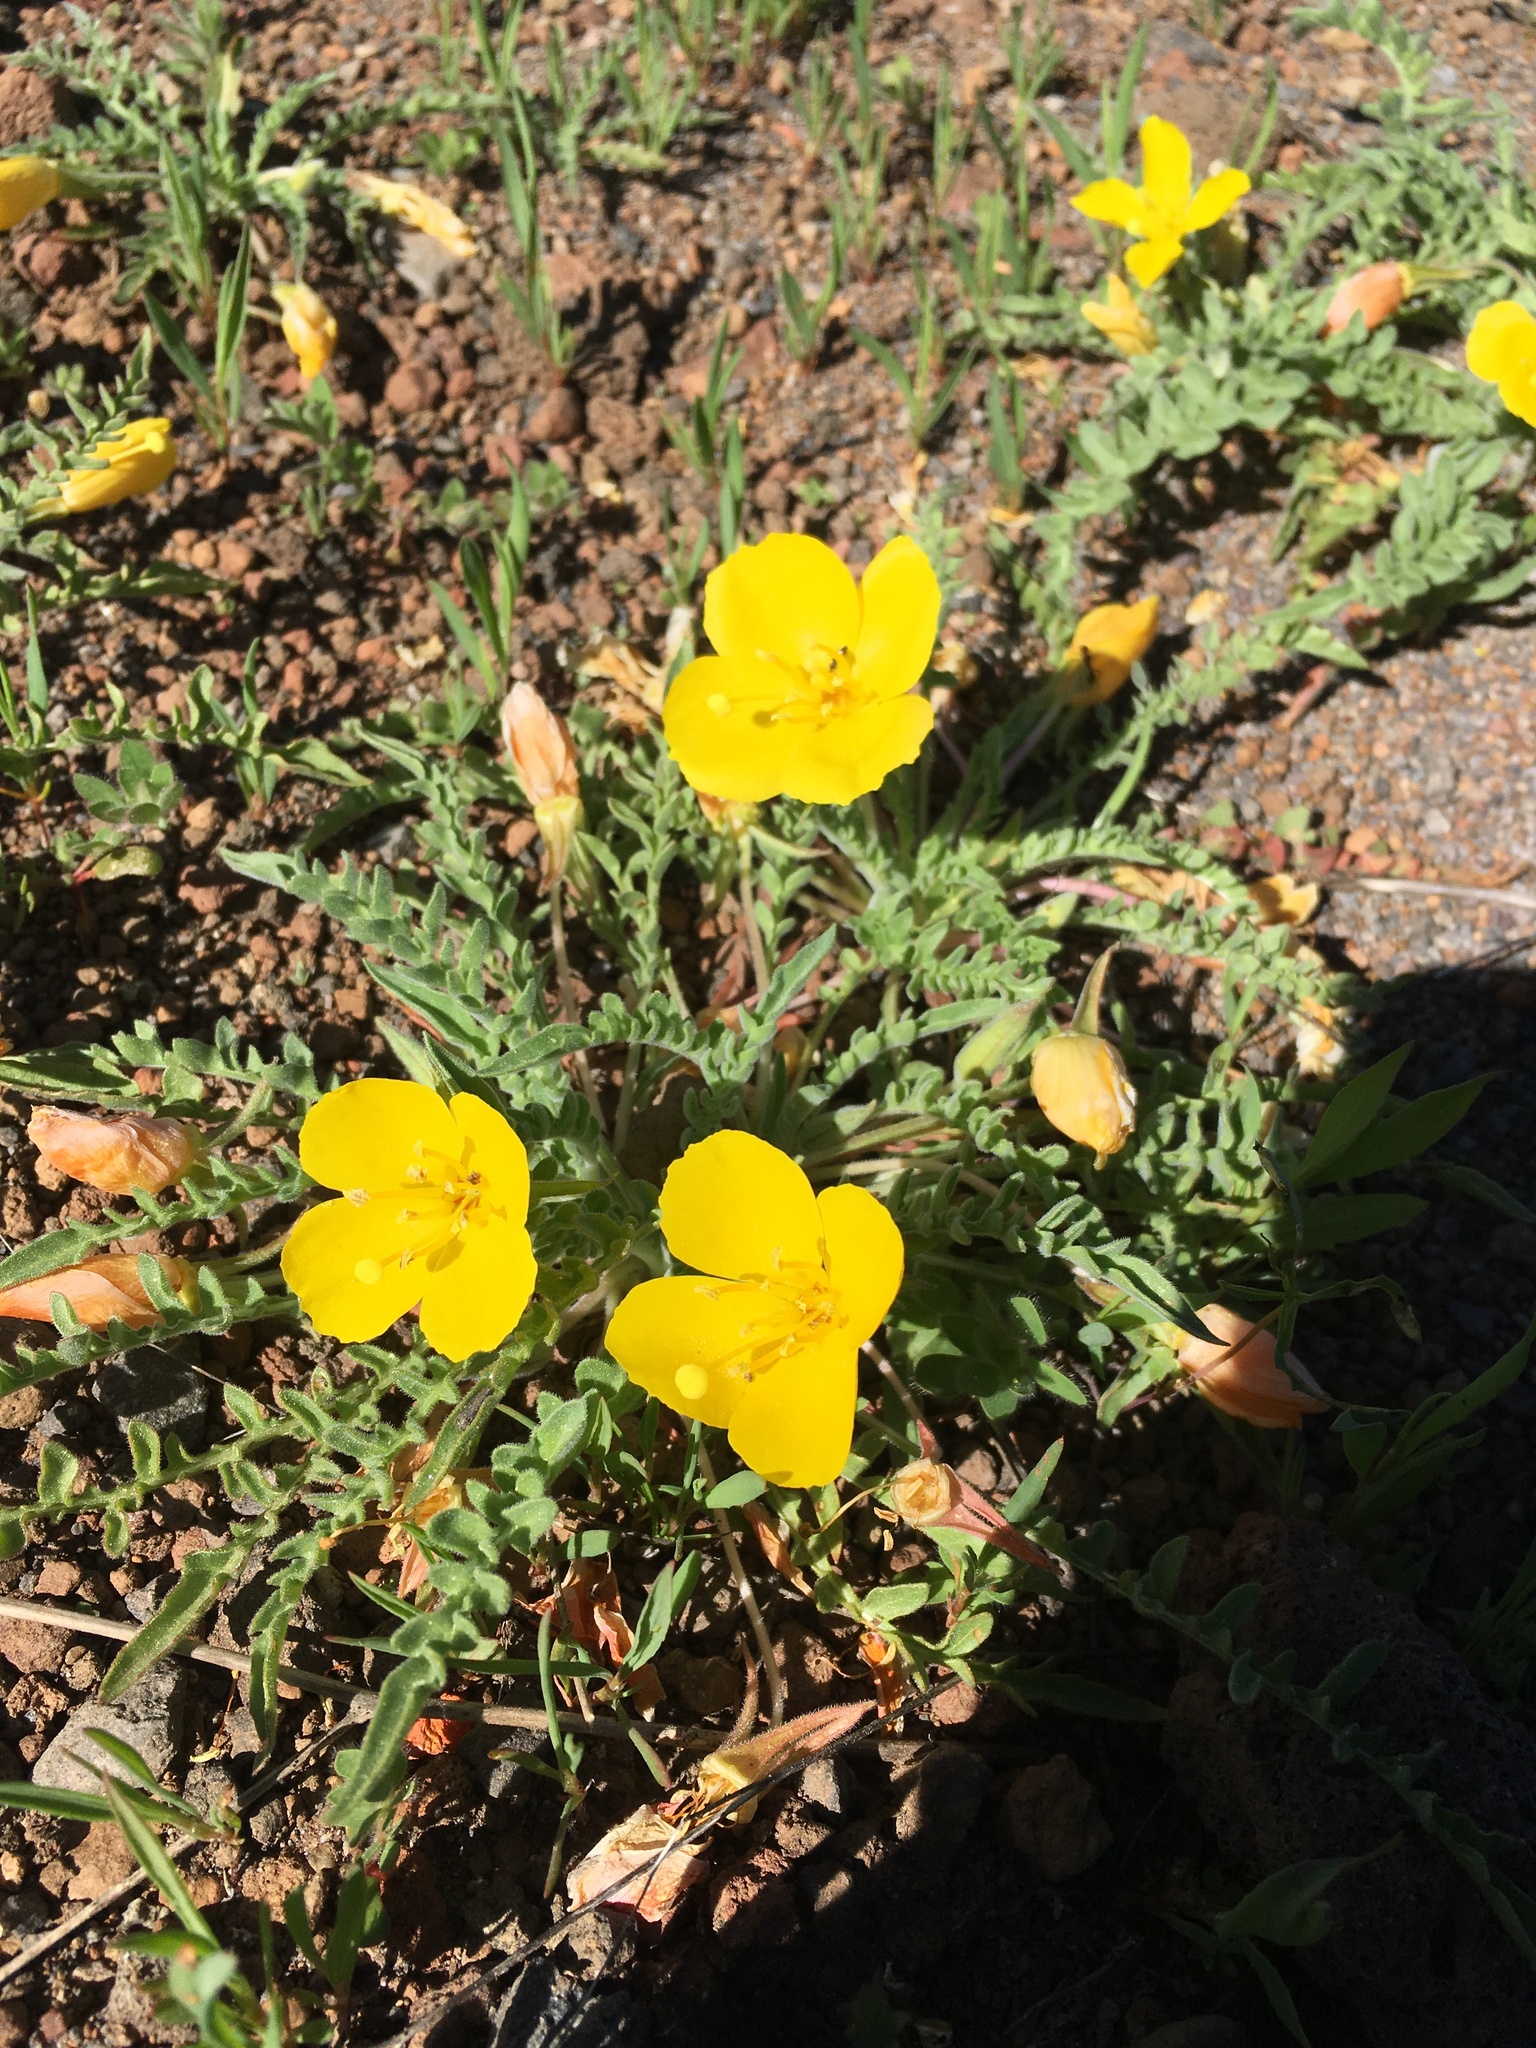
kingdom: Plantae
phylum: Tracheophyta
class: Magnoliopsida
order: Myrtales
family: Onagraceae
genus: Taraxia
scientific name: Taraxia tanacetifolia
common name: Tansyleaf evening primrose
